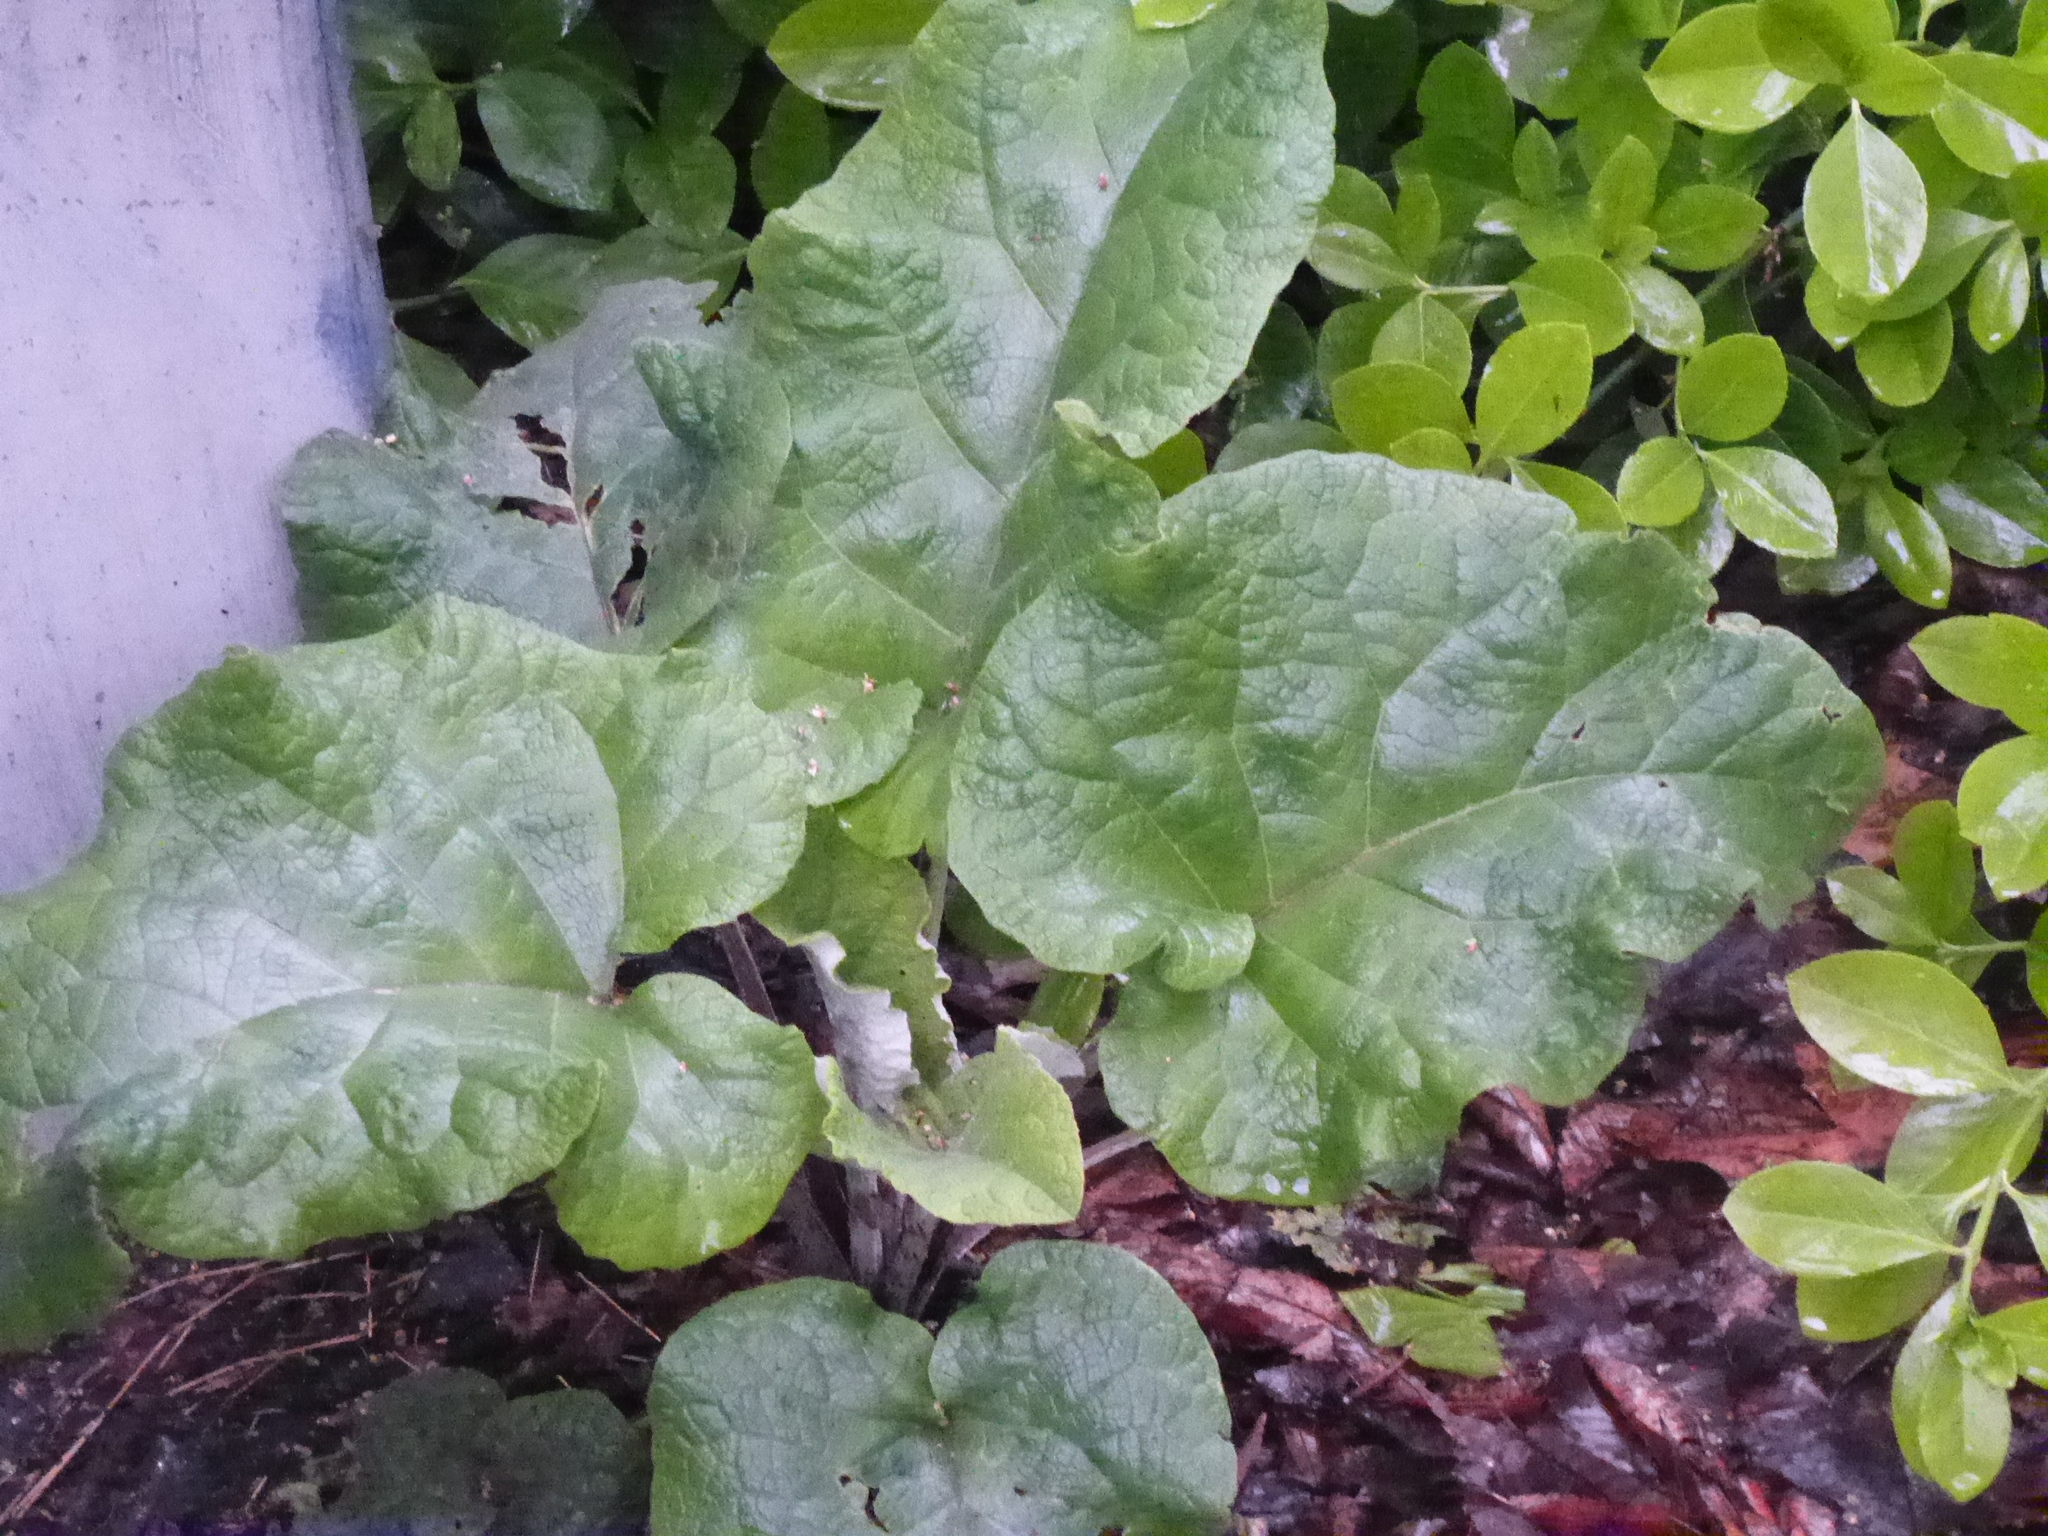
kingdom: Plantae
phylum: Tracheophyta
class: Magnoliopsida
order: Asterales
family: Asteraceae
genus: Arctium
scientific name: Arctium
